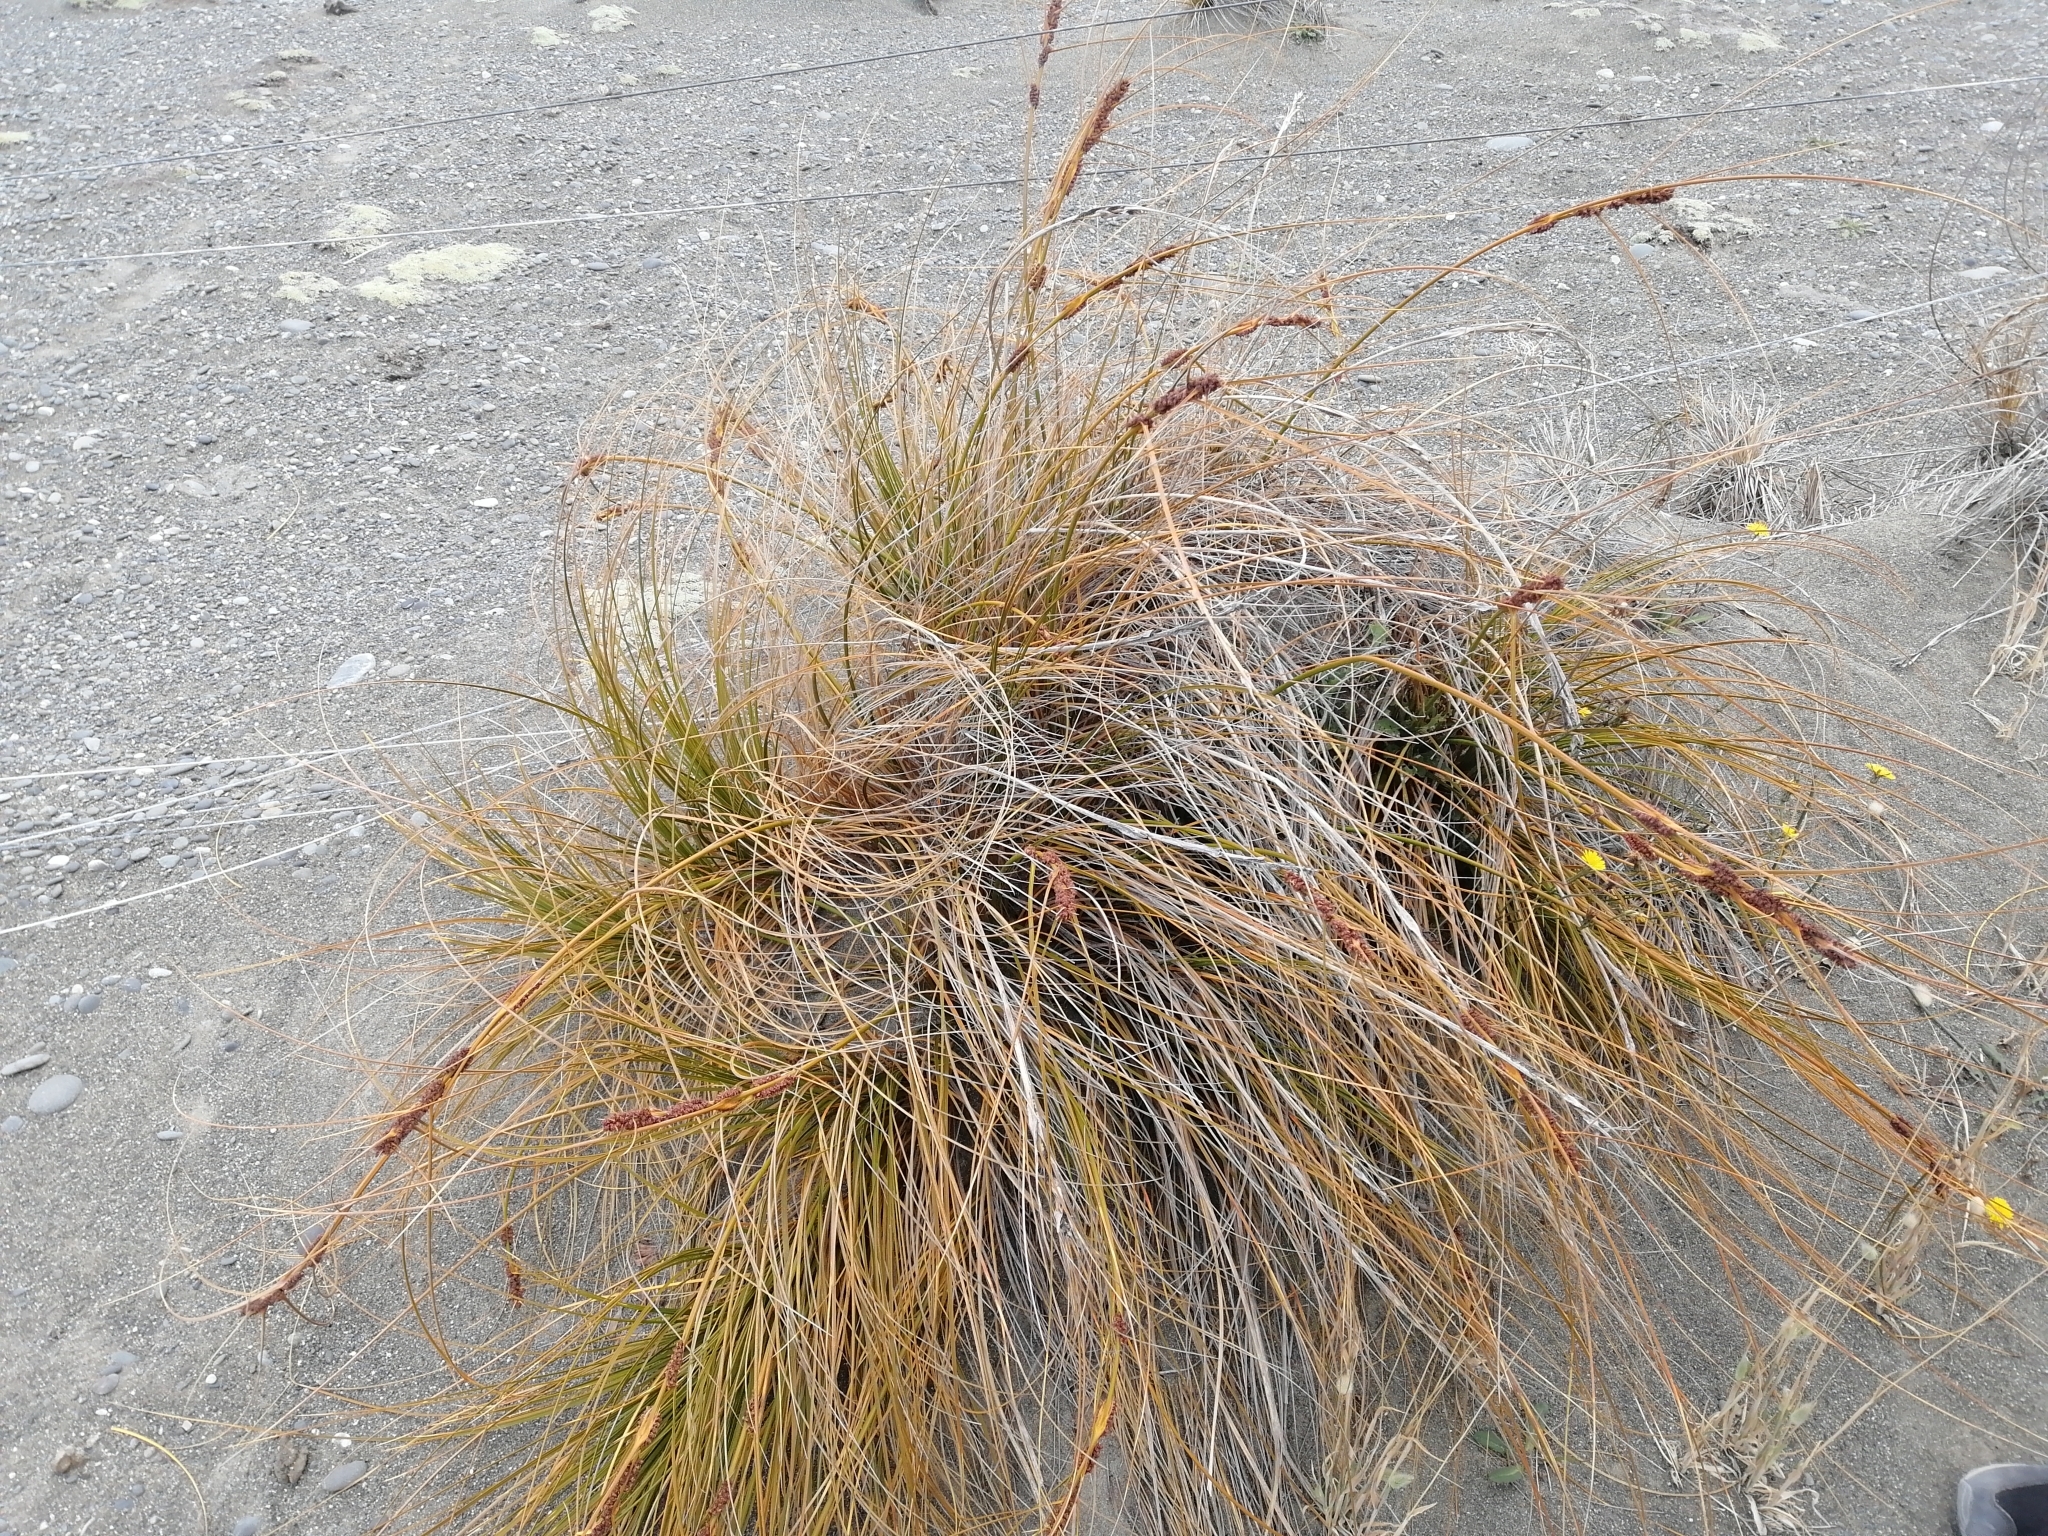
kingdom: Plantae
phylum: Tracheophyta
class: Liliopsida
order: Poales
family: Cyperaceae
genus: Ficinia
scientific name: Ficinia spiralis
